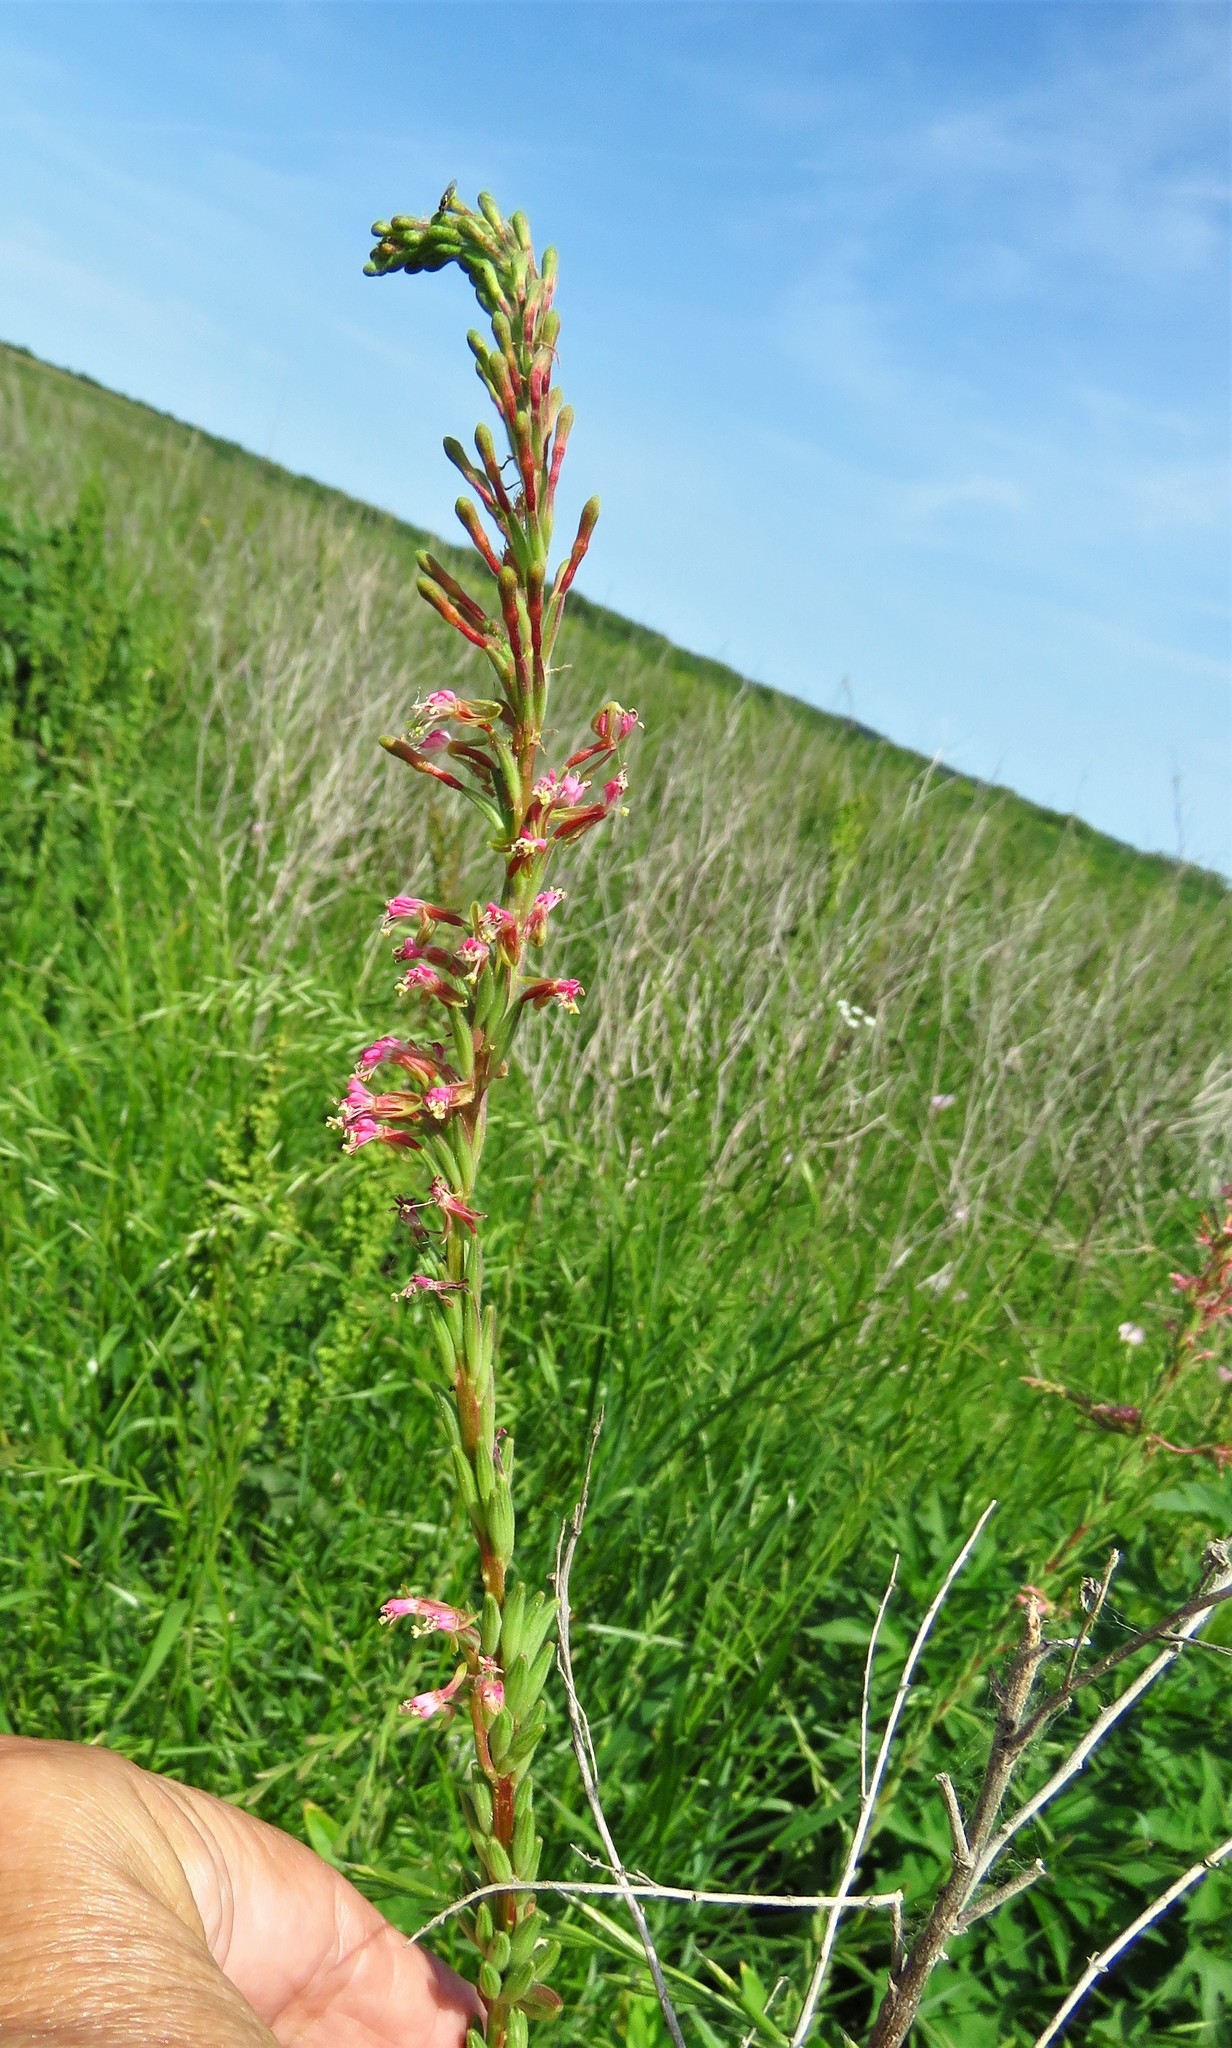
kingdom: Plantae
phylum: Tracheophyta
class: Magnoliopsida
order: Myrtales
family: Onagraceae
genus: Oenothera
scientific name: Oenothera curtiflora
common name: Velvetweed
